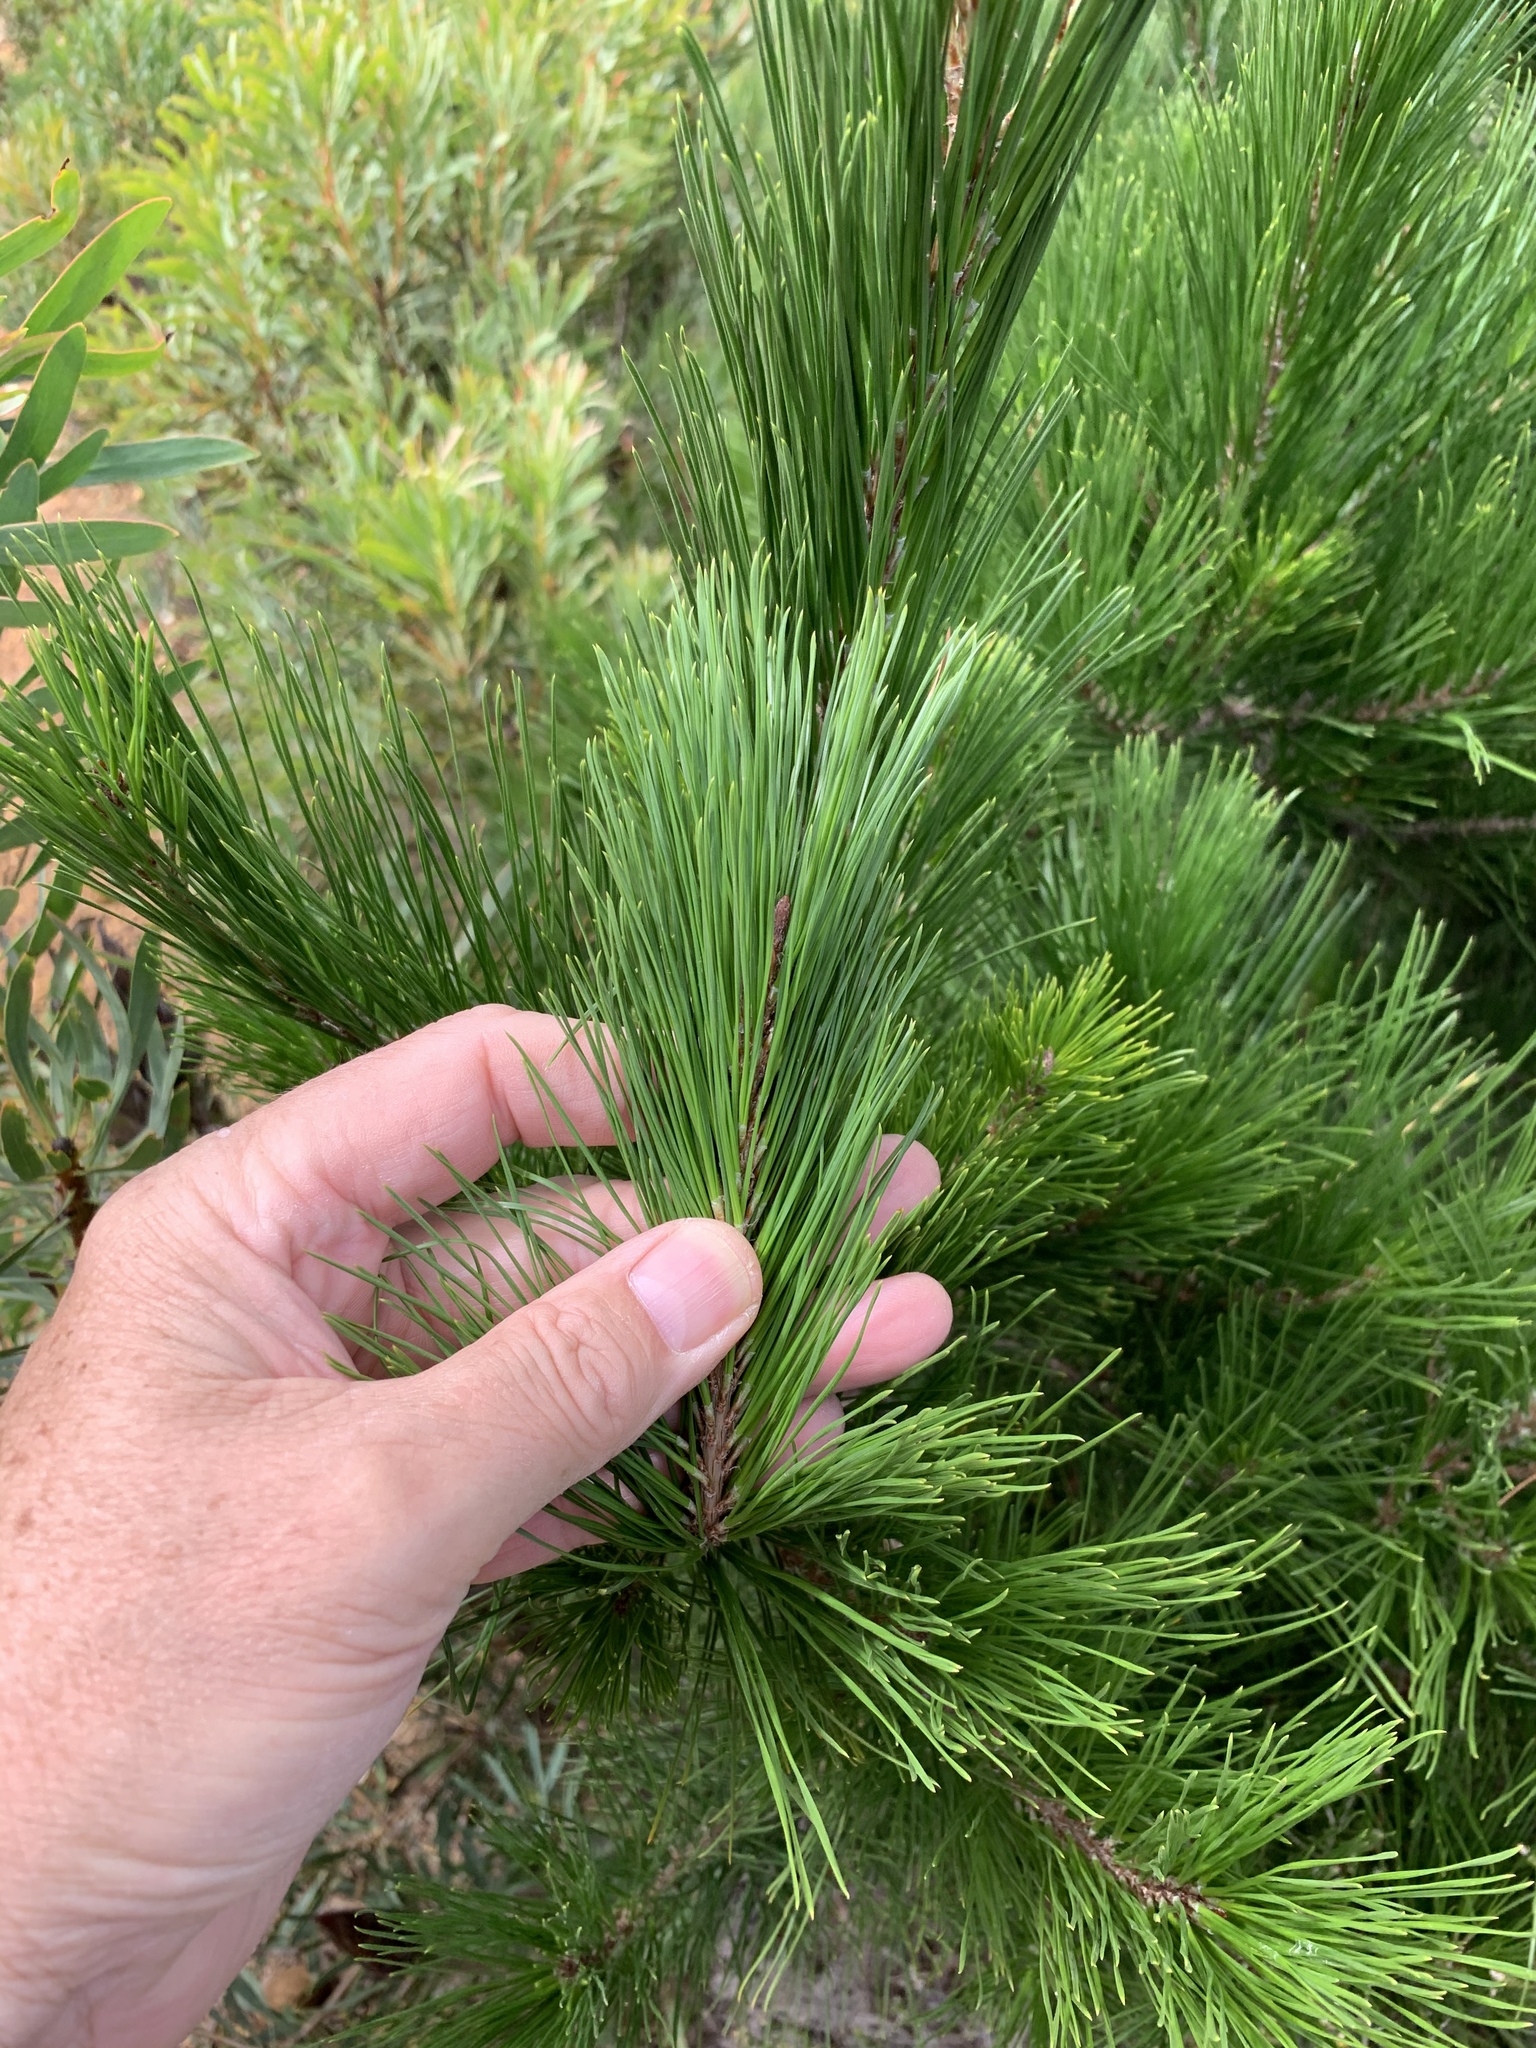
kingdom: Plantae
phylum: Tracheophyta
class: Pinopsida
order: Pinales
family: Pinaceae
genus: Pinus
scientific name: Pinus radiata
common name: Monterey pine
